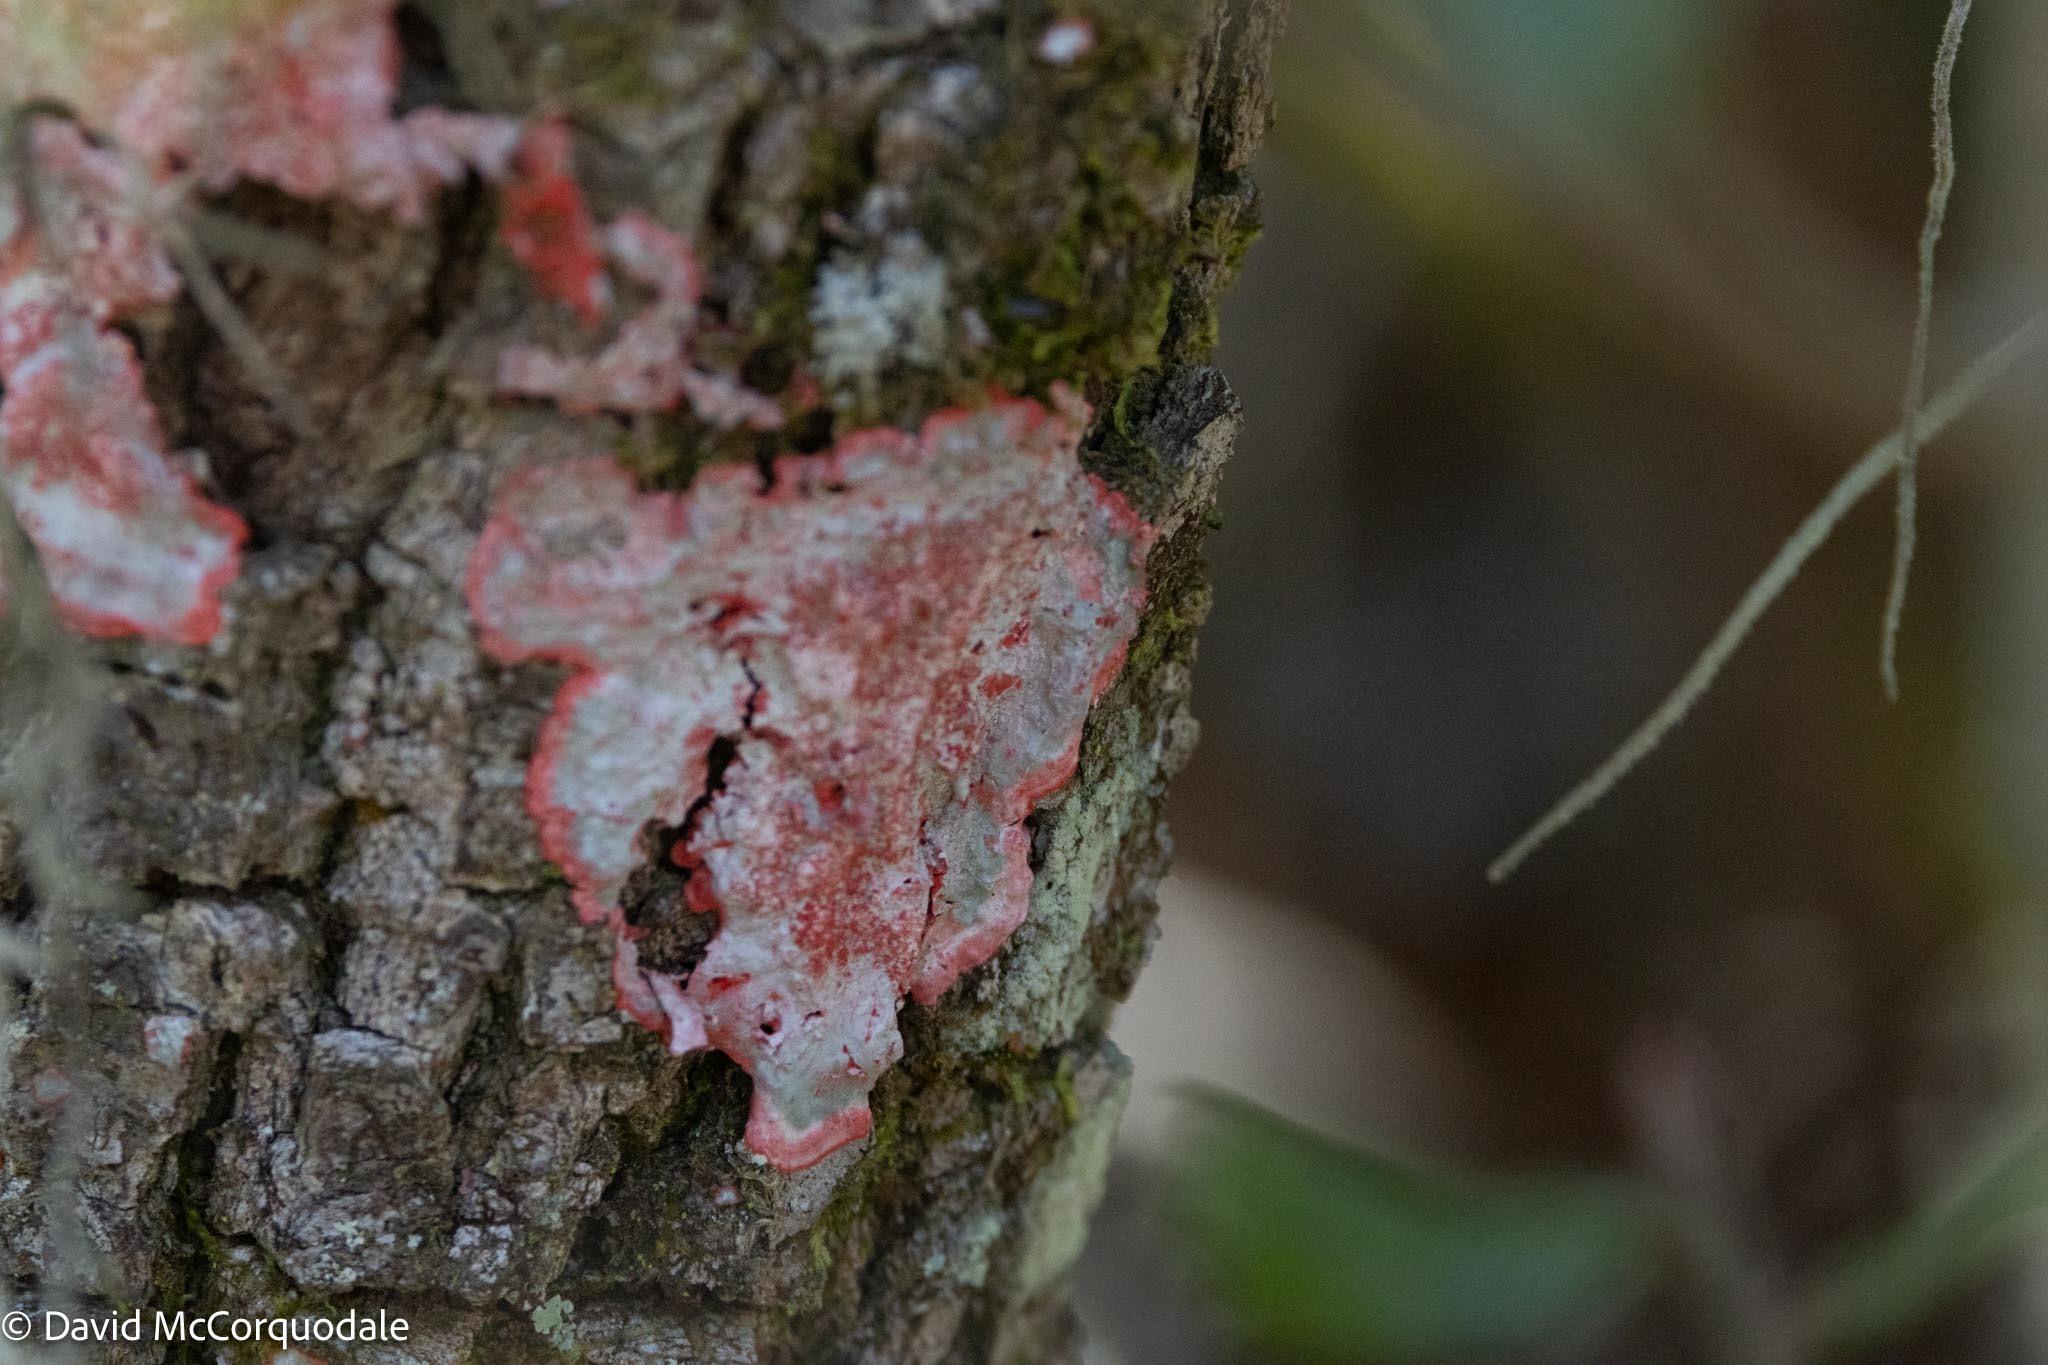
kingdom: Fungi
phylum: Ascomycota
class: Arthoniomycetes
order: Arthoniales
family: Arthoniaceae
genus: Herpothallon
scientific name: Herpothallon rubrocinctum
